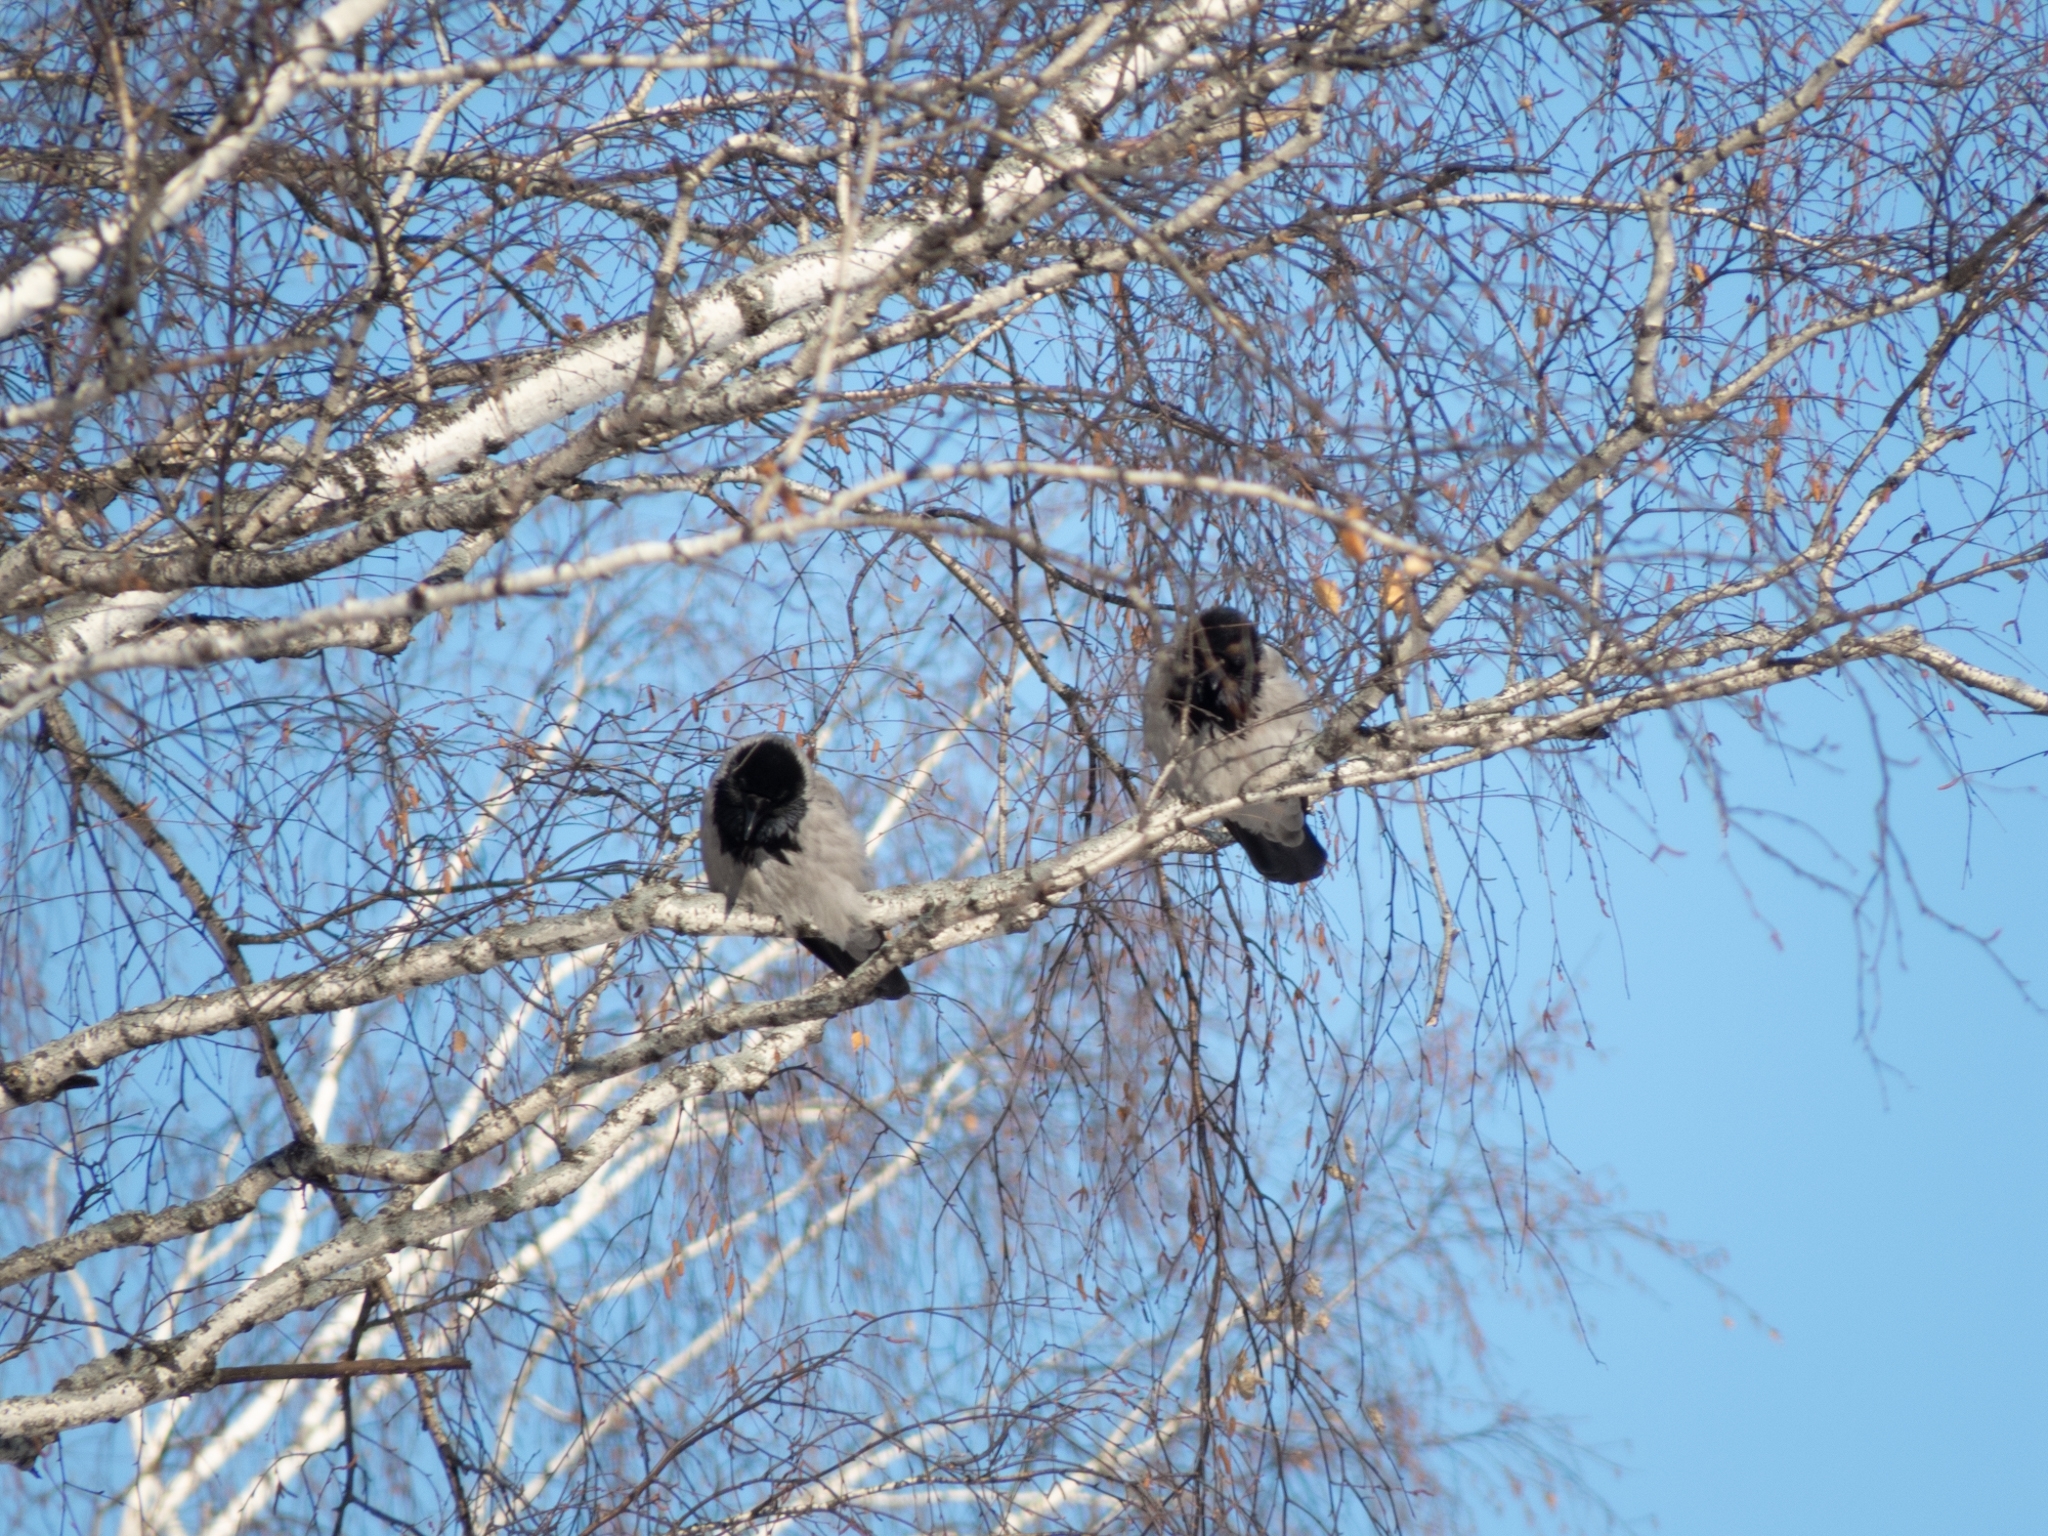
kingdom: Animalia
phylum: Chordata
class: Aves
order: Passeriformes
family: Corvidae
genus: Corvus
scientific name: Corvus cornix
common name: Hooded crow
